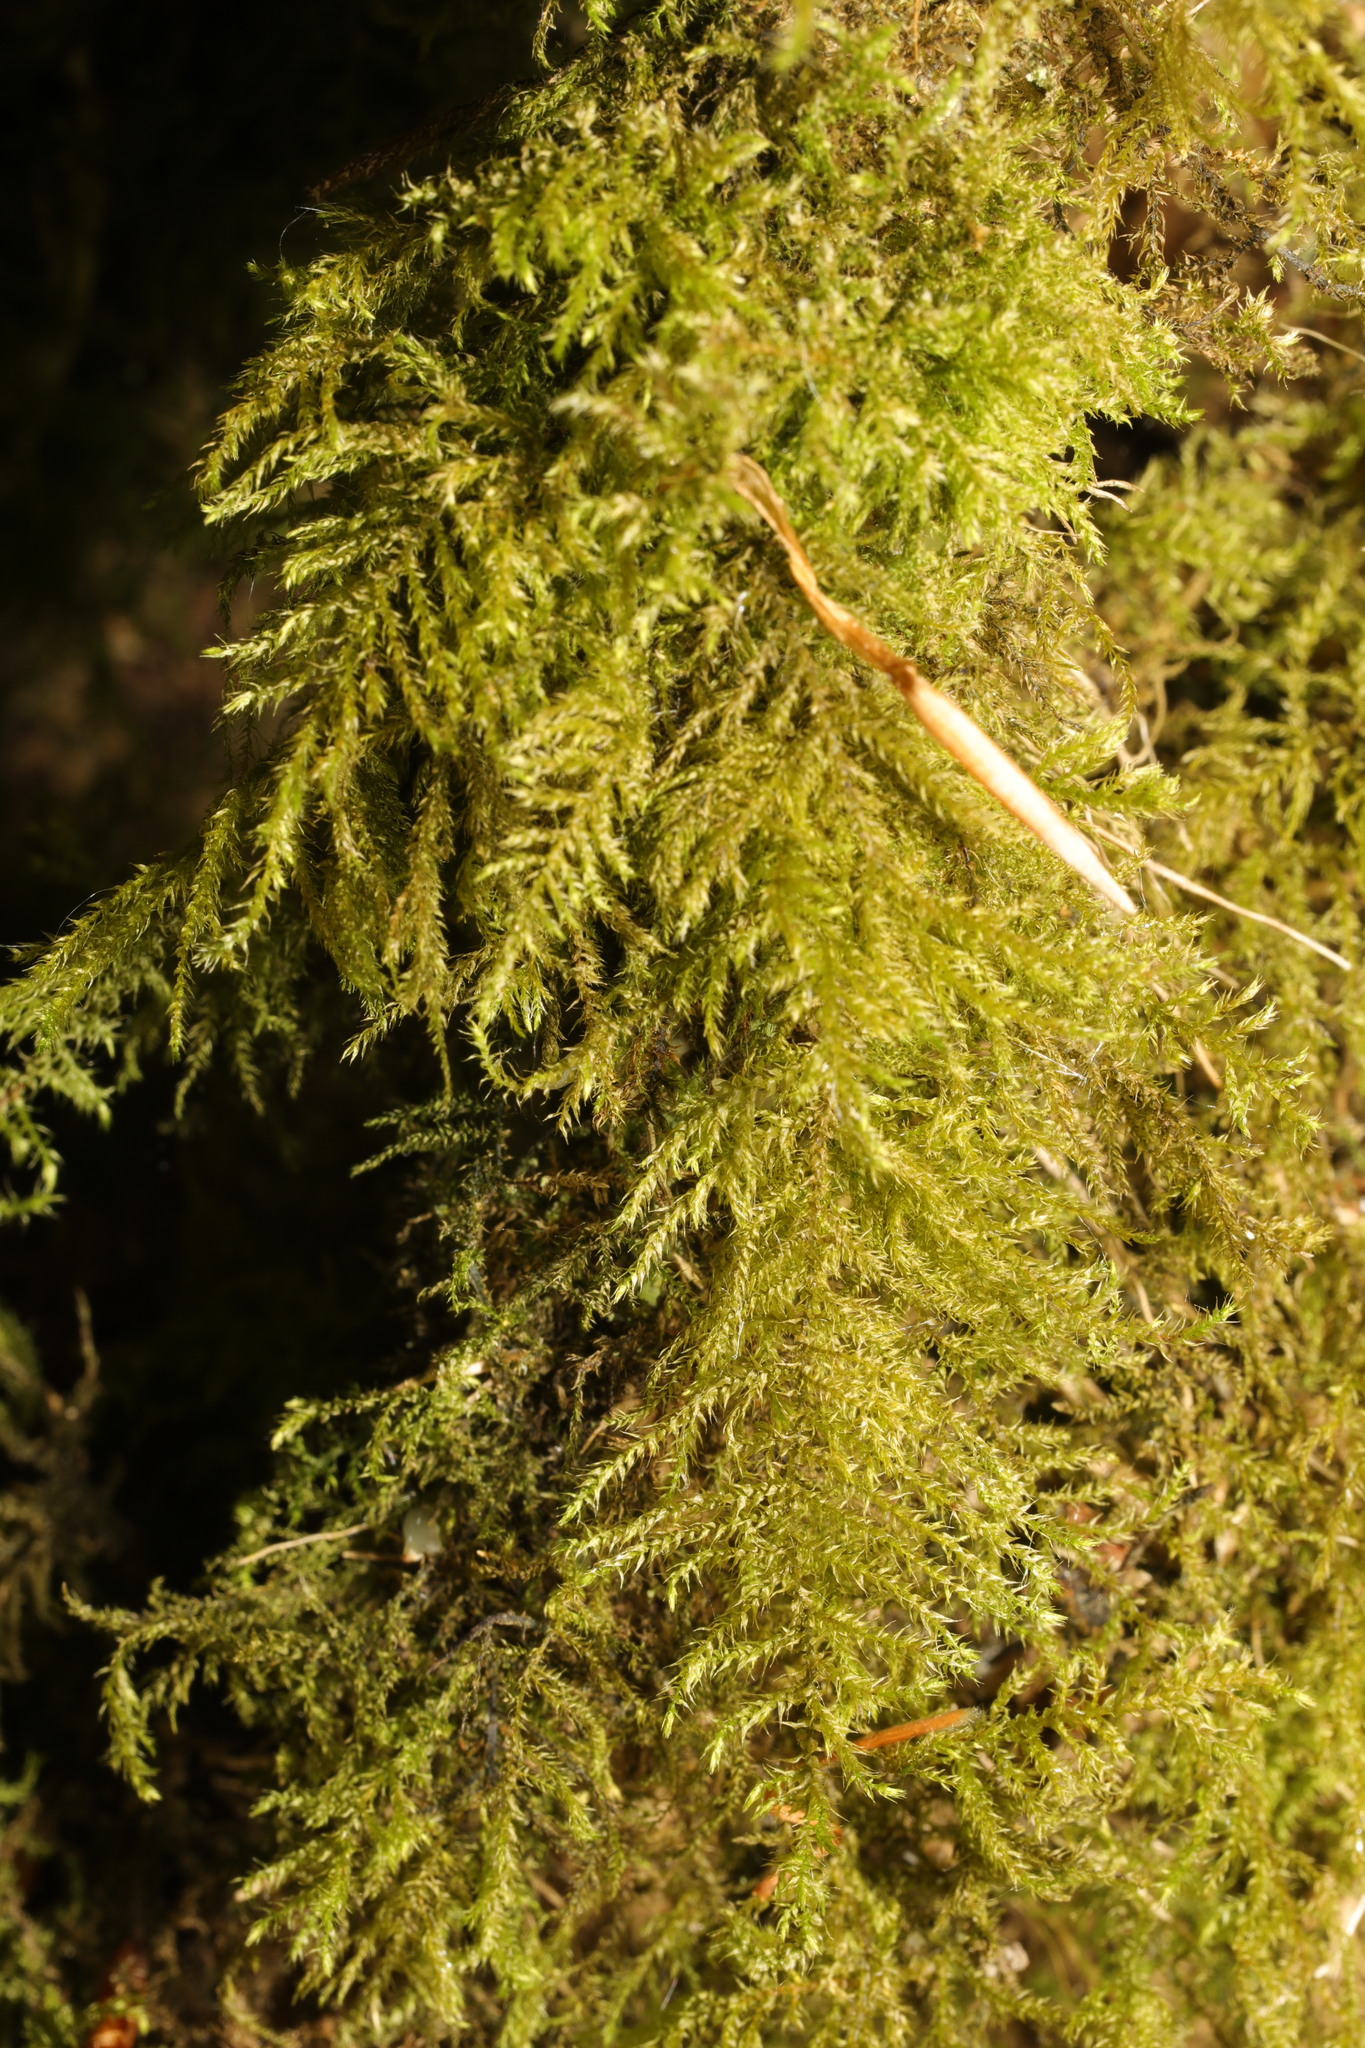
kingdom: Plantae
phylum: Bryophyta
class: Bryopsida
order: Hypnales
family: Brachytheciaceae
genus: Kindbergia
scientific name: Kindbergia praelonga
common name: Slender beaked moss
